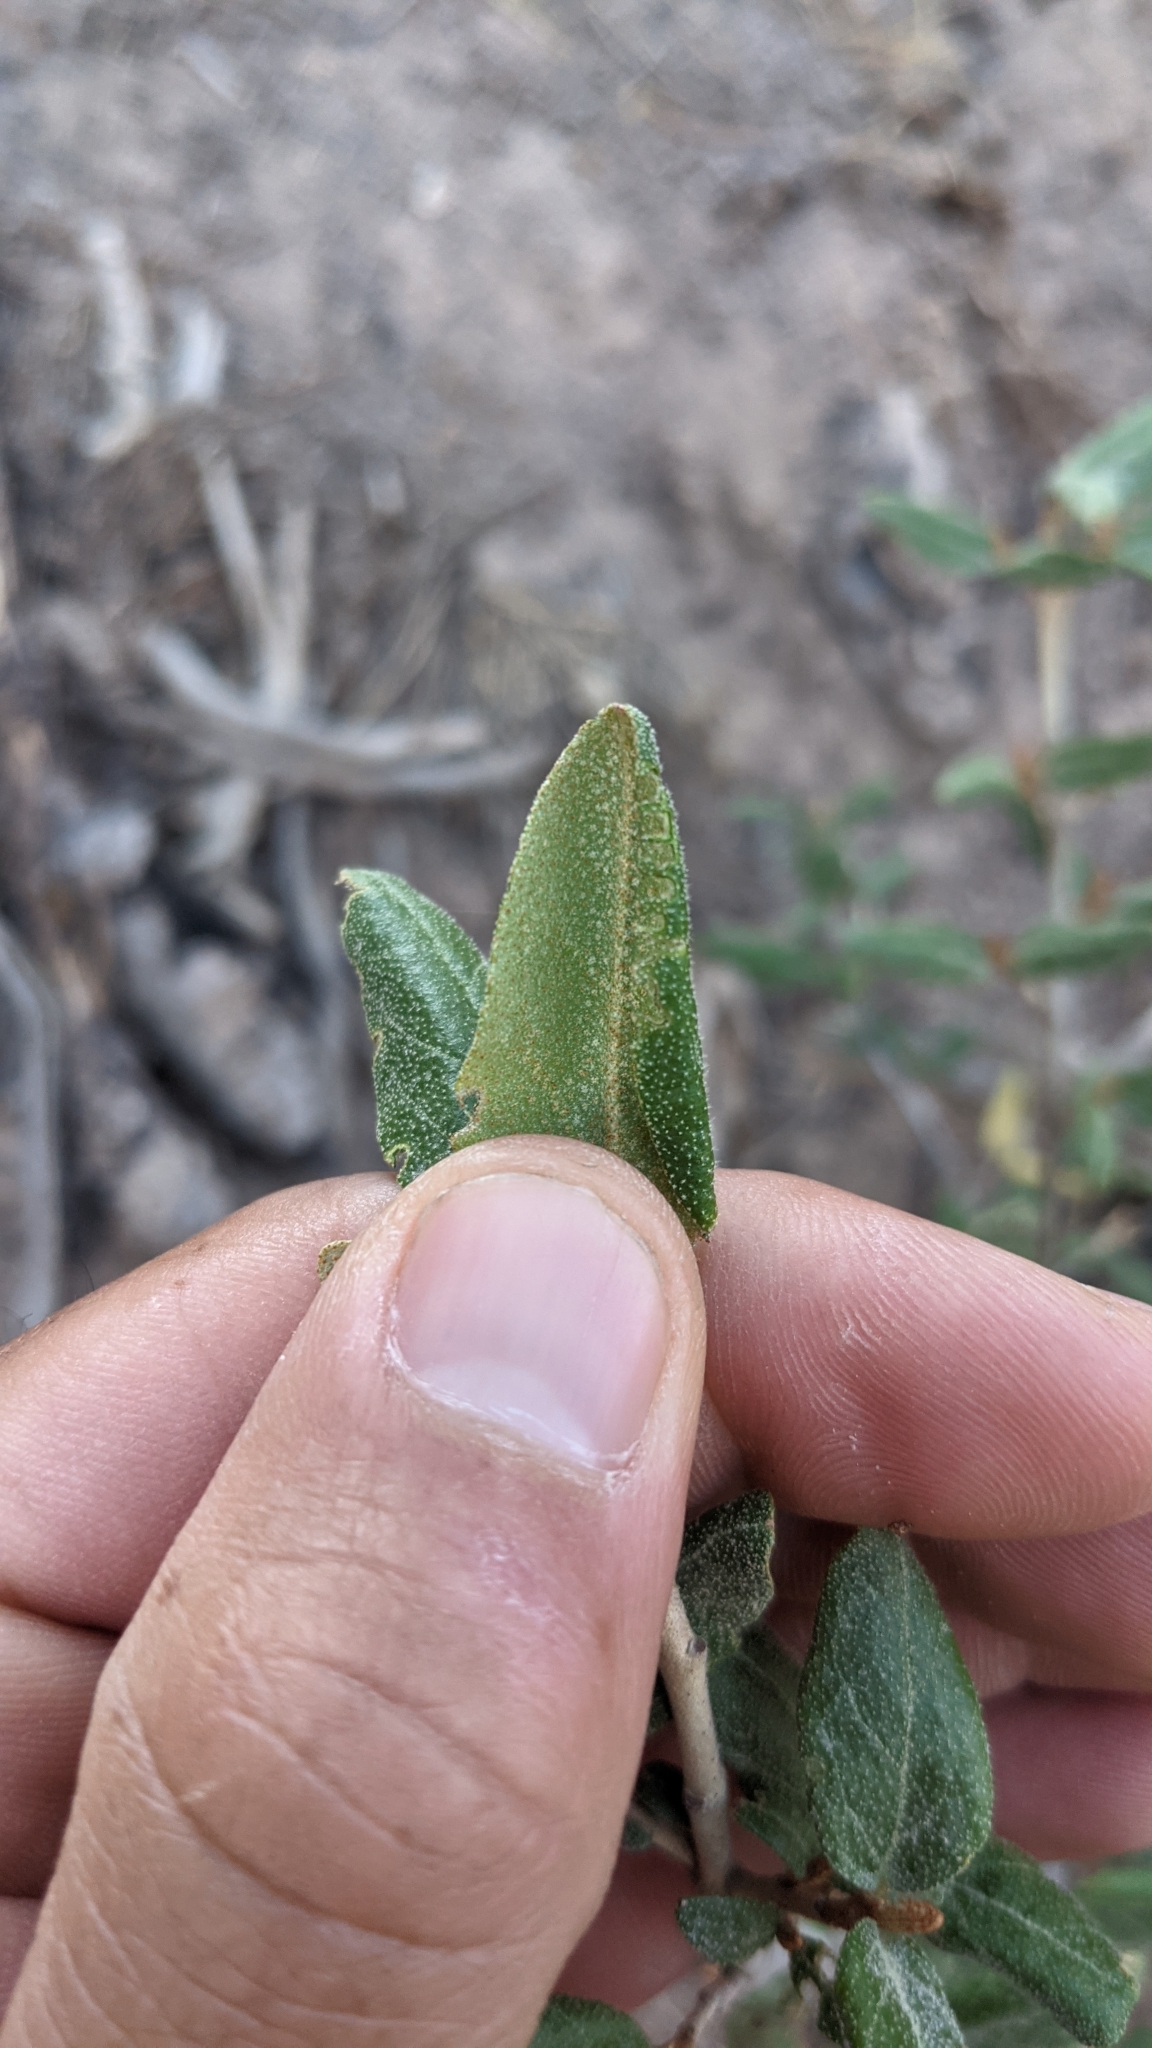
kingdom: Plantae
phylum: Tracheophyta
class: Magnoliopsida
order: Rosales
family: Elaeagnaceae
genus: Shepherdia
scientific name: Shepherdia canadensis
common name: Soapberry
